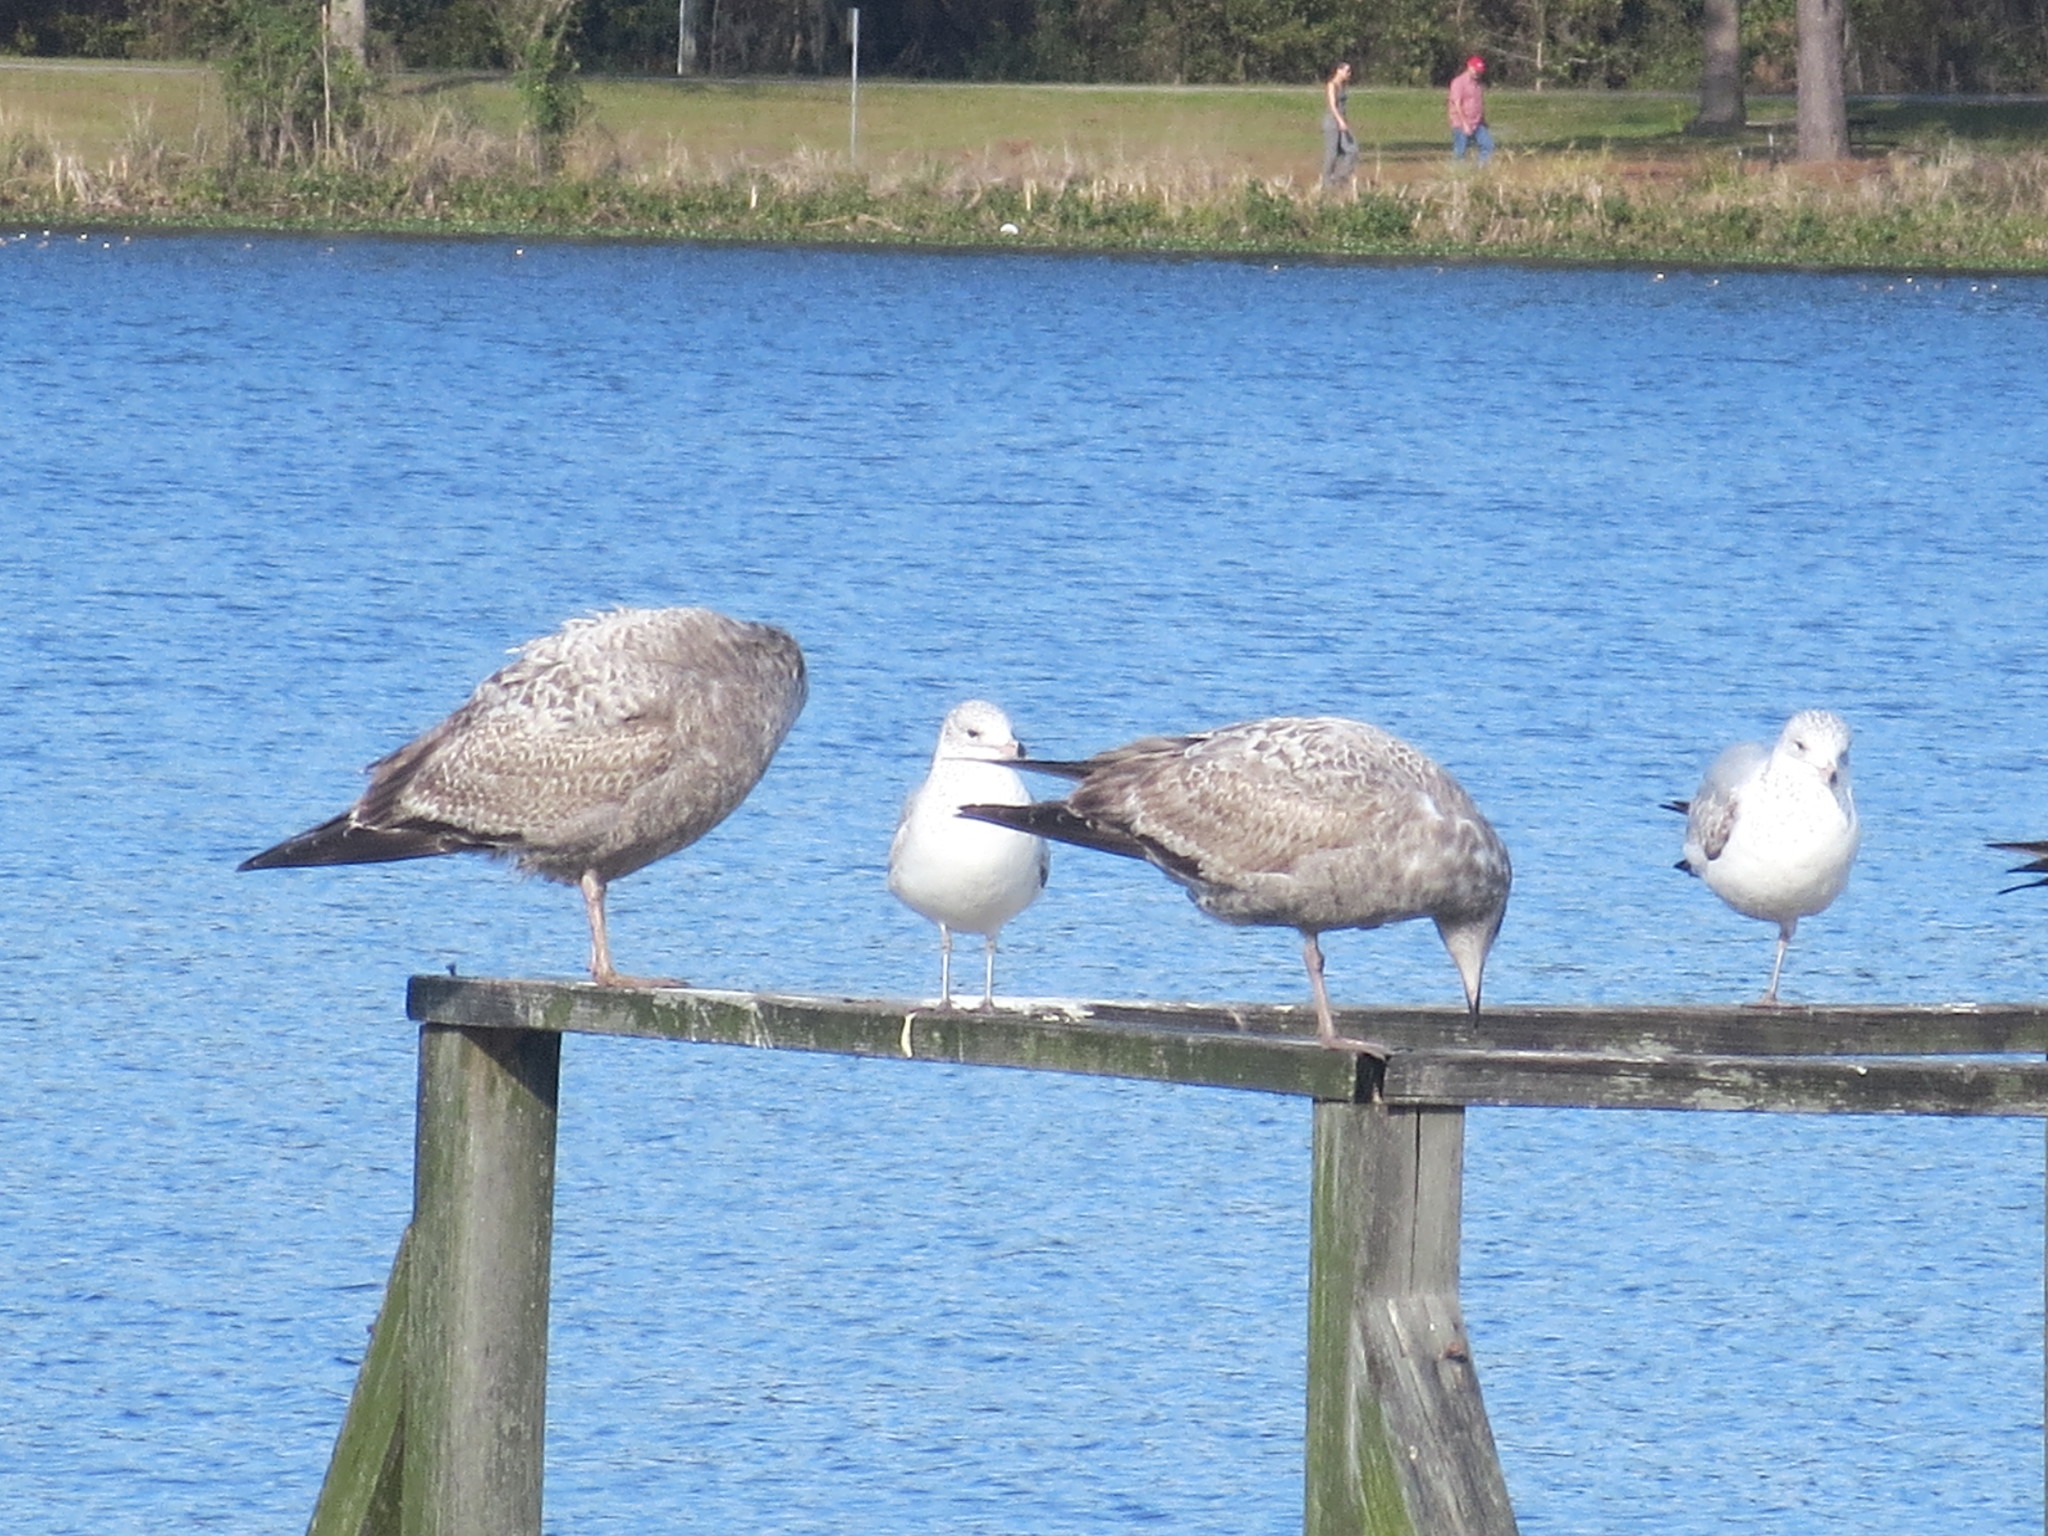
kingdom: Animalia
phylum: Chordata
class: Aves
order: Charadriiformes
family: Laridae
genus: Larus
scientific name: Larus delawarensis
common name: Ring-billed gull
